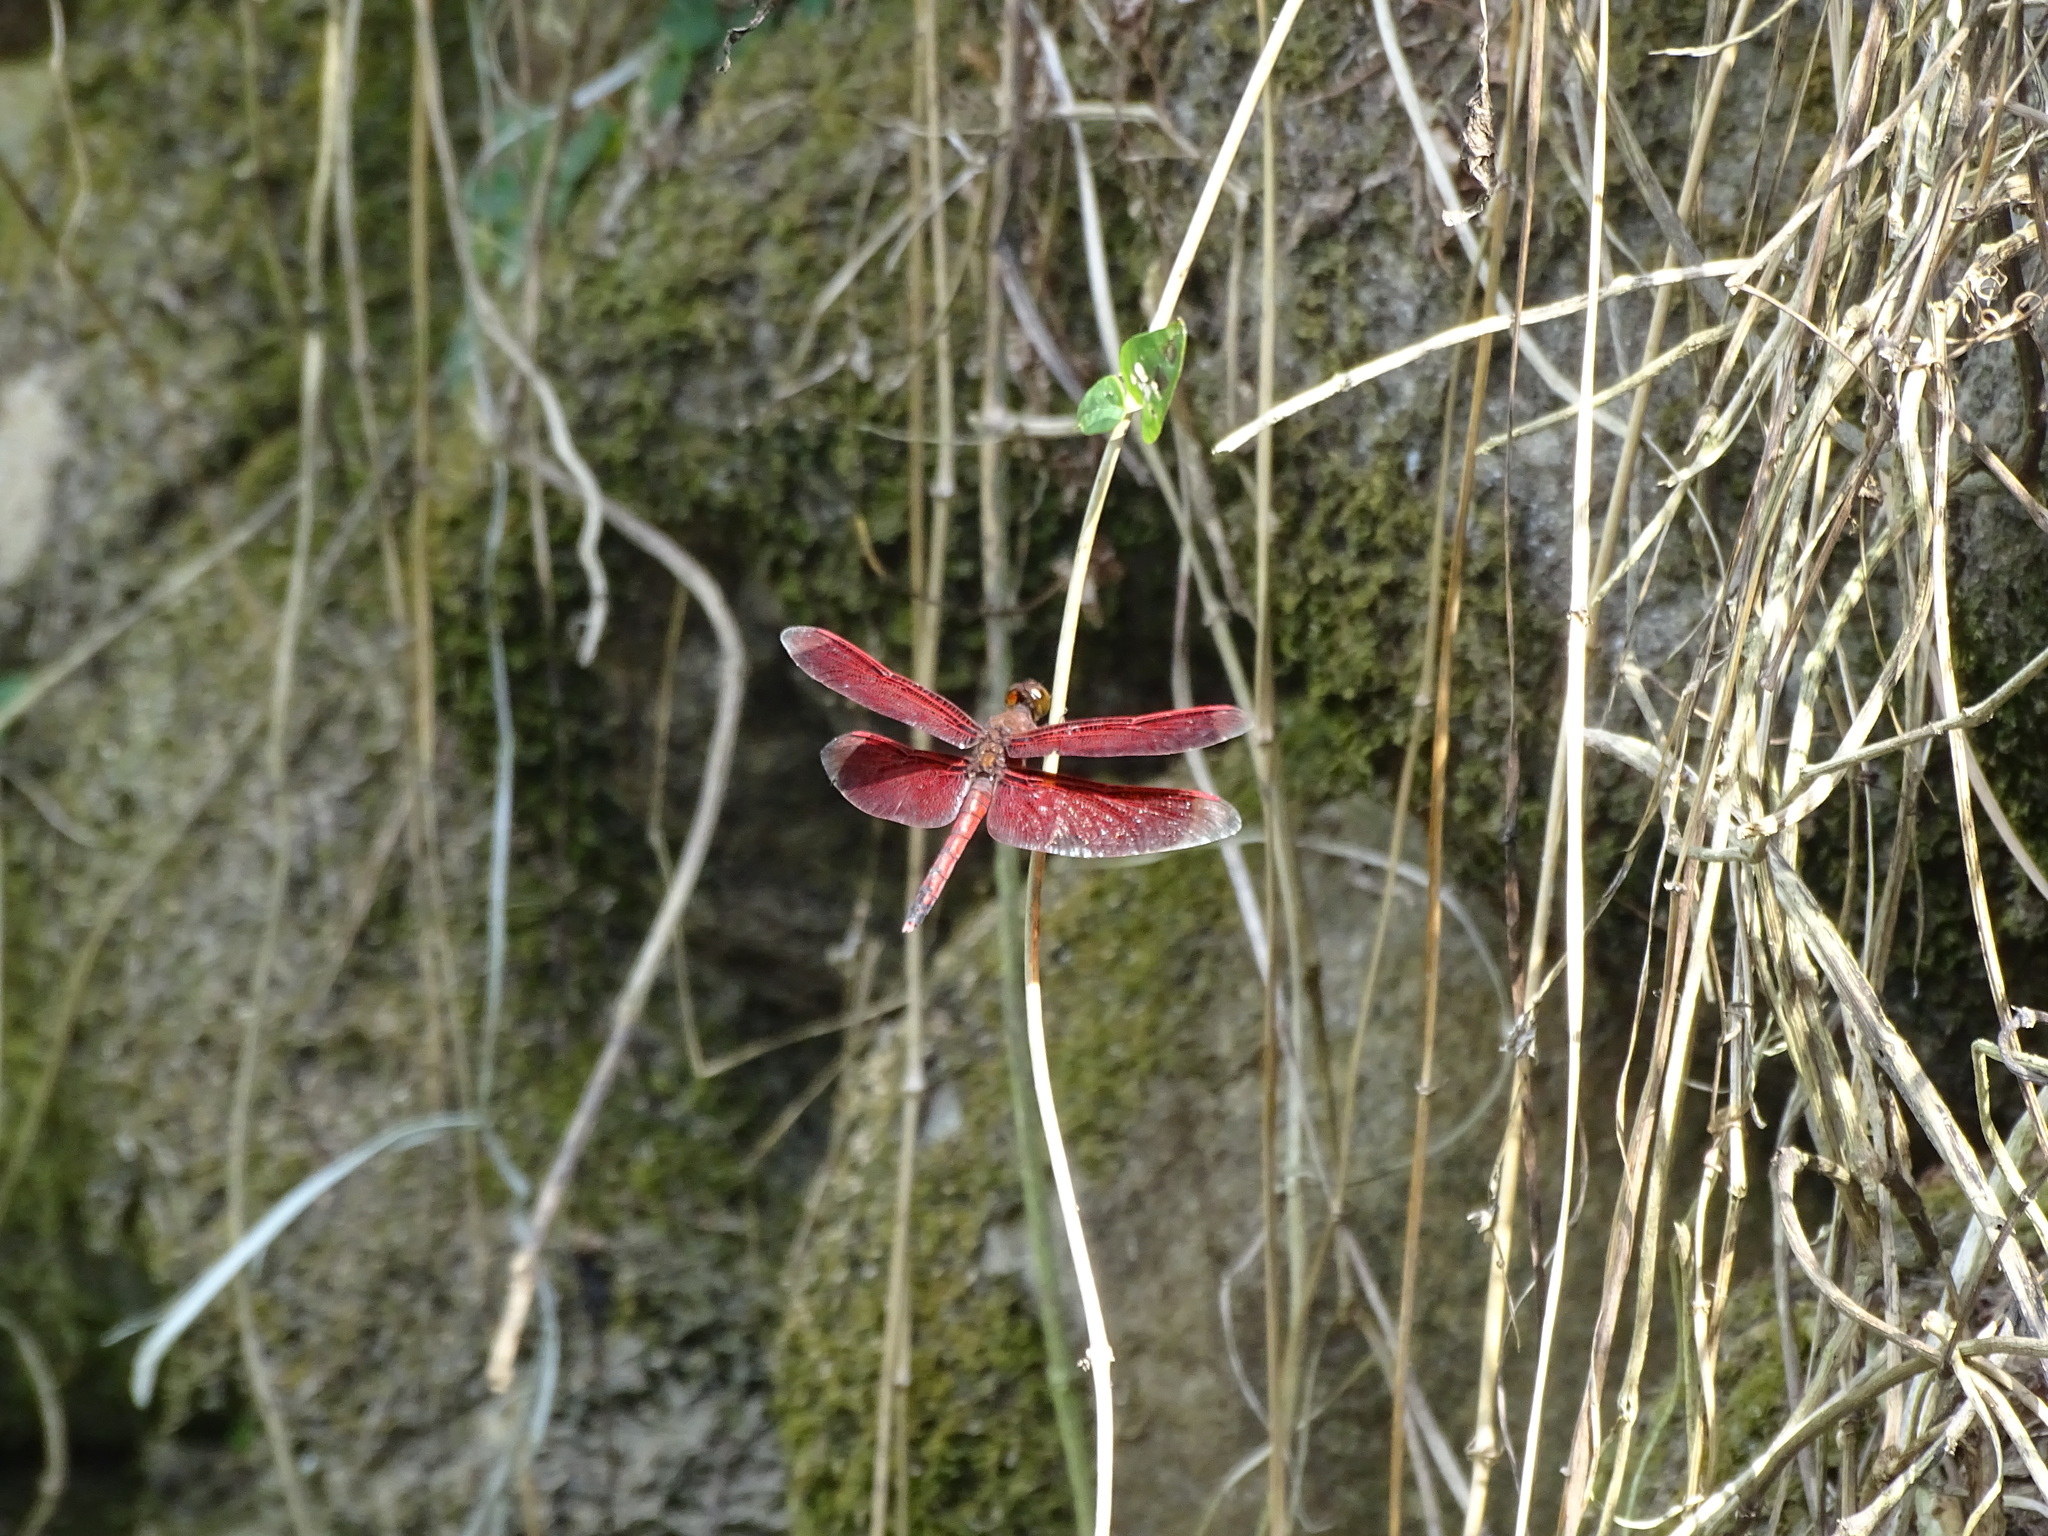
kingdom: Animalia
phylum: Arthropoda
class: Insecta
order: Odonata
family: Libellulidae
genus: Neurothemis
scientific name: Neurothemis taiwanensis
